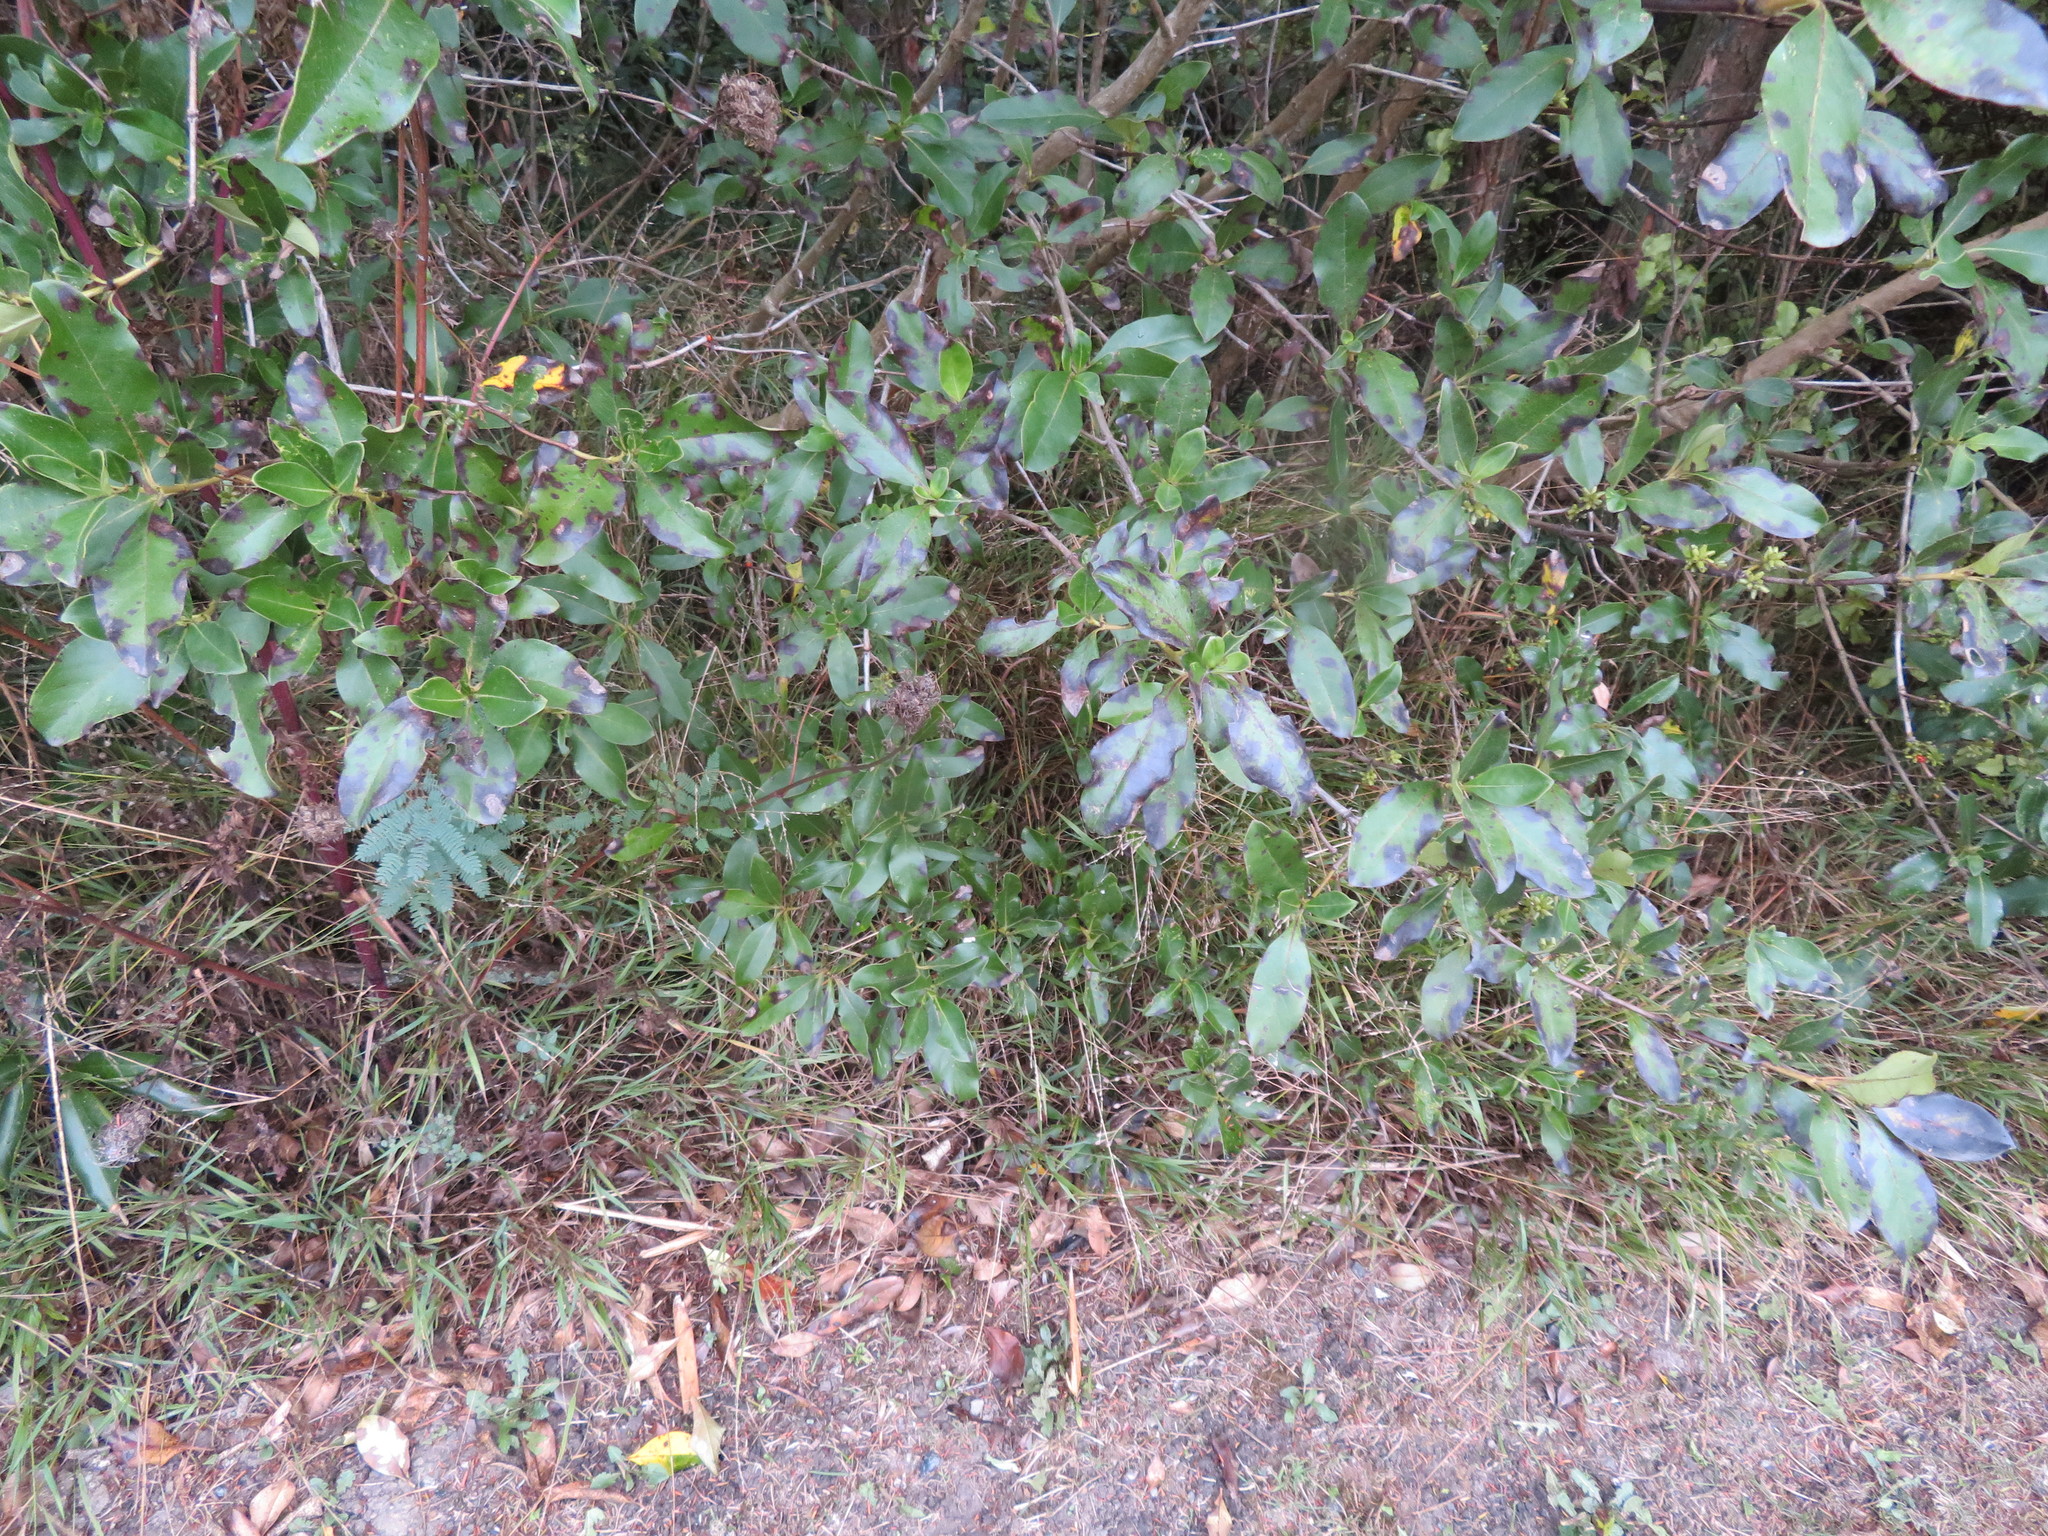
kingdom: Plantae
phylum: Tracheophyta
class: Magnoliopsida
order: Gentianales
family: Rubiaceae
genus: Coprosma
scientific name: Coprosma robusta
